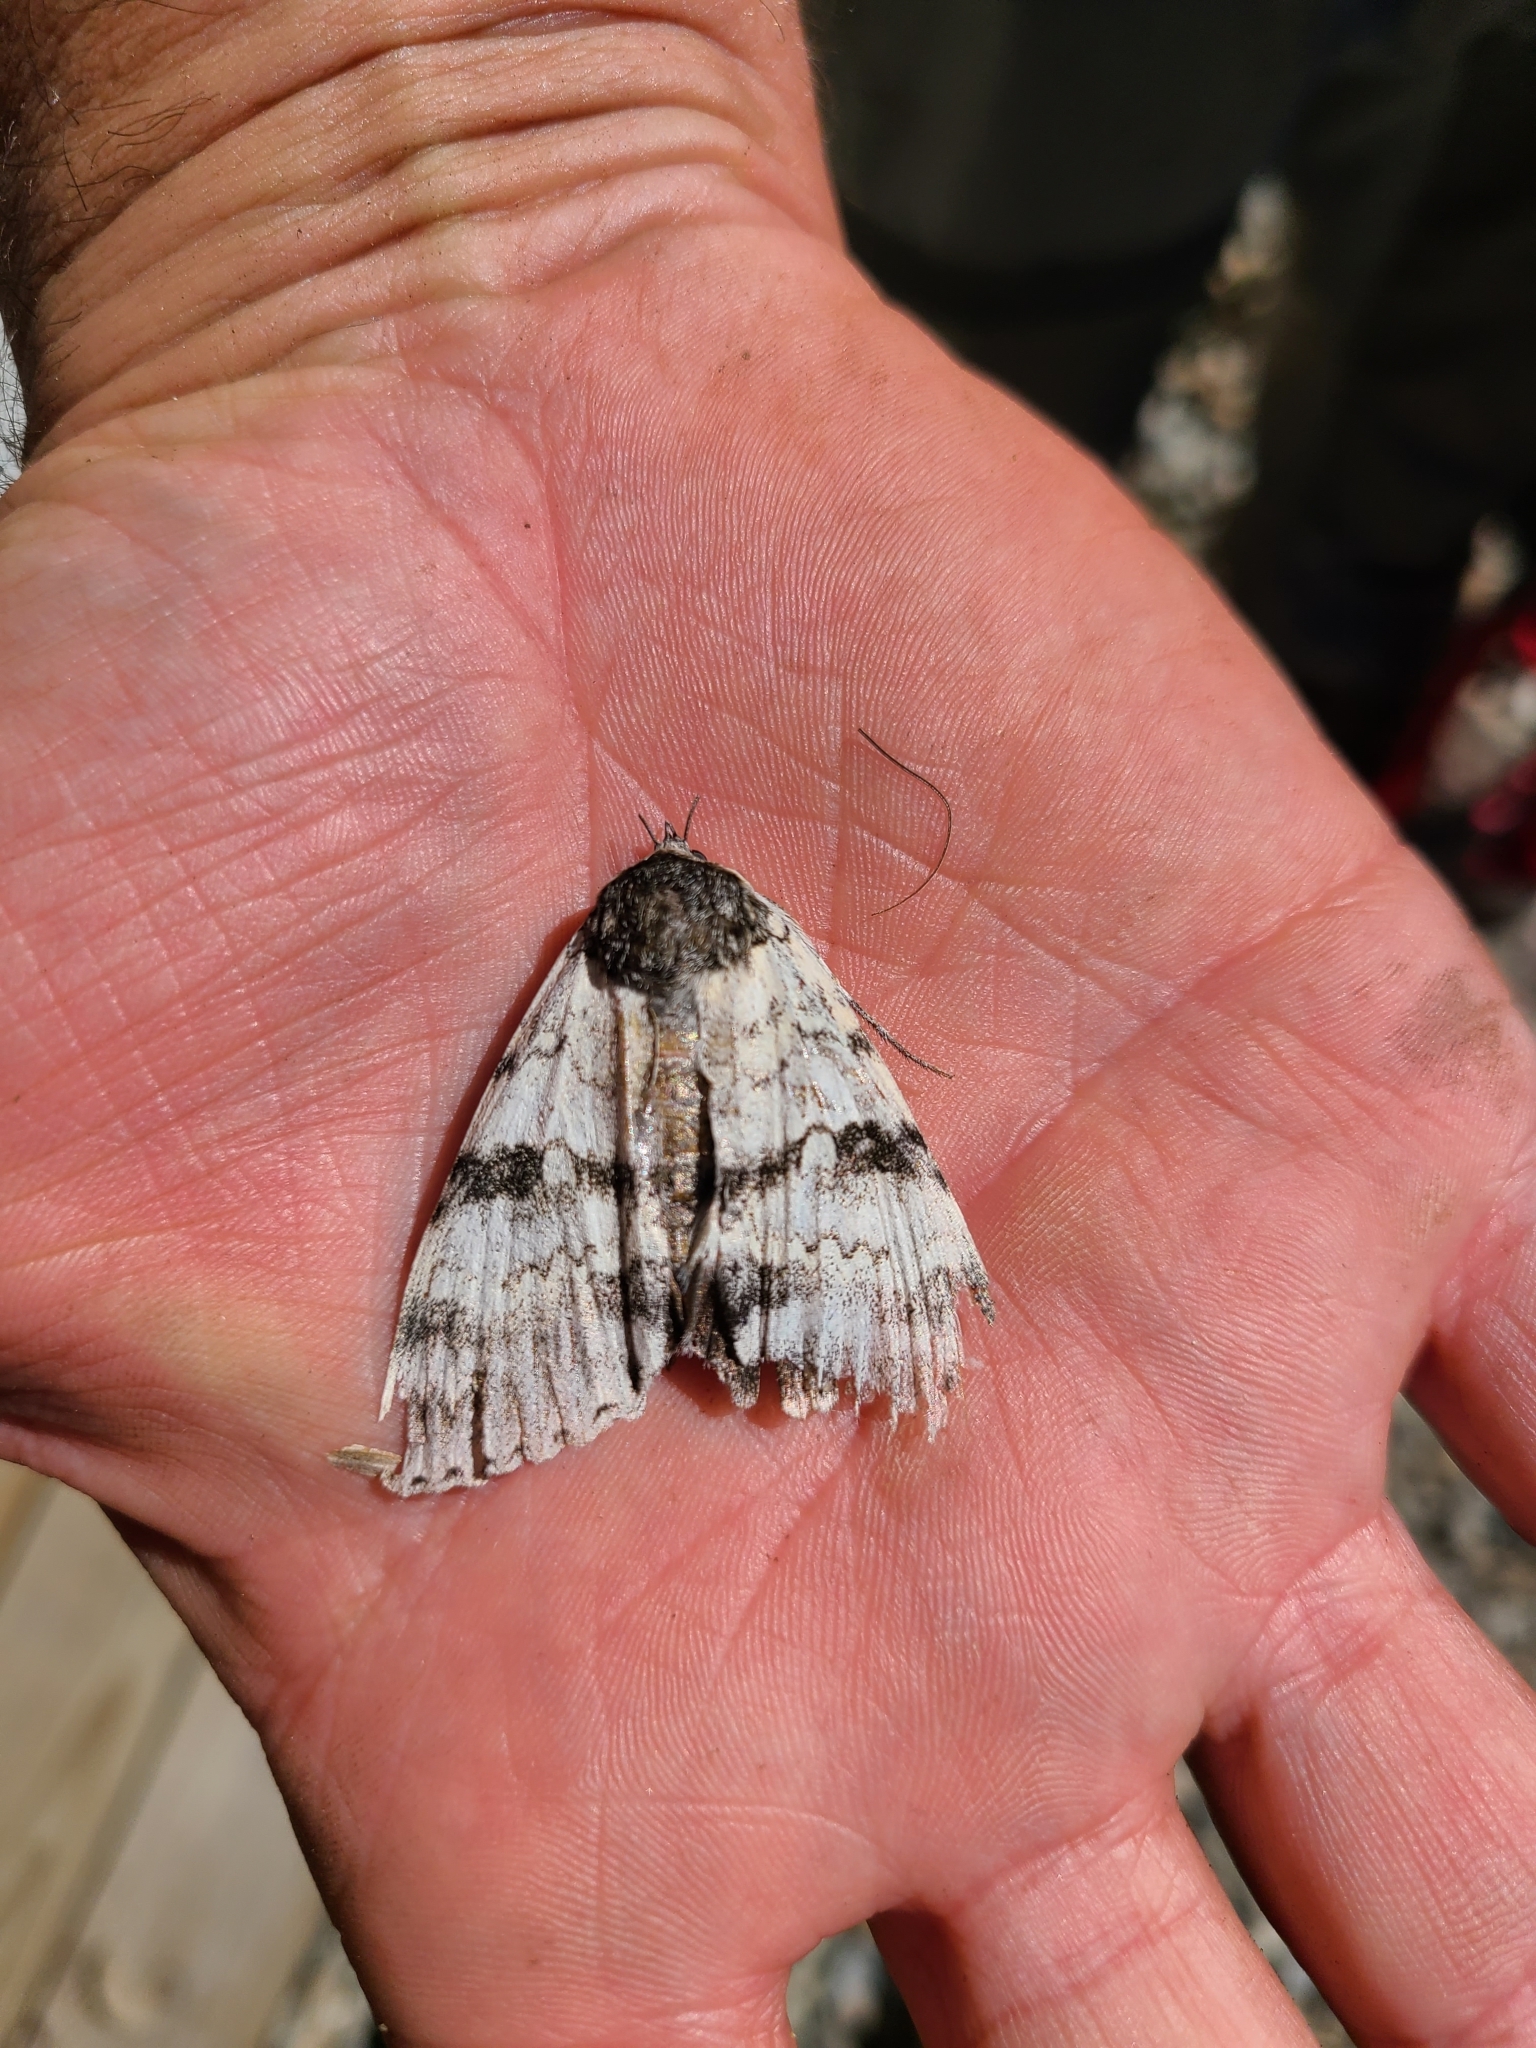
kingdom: Animalia
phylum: Arthropoda
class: Insecta
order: Lepidoptera
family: Erebidae
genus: Catocala
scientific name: Catocala relicta
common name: White underwing
